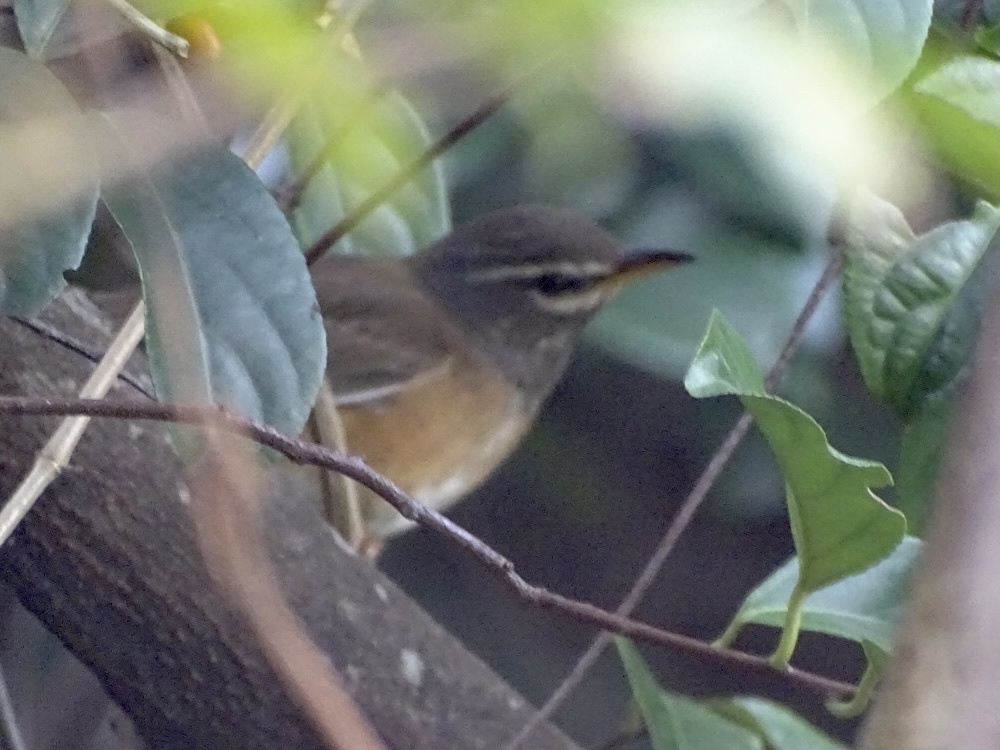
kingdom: Animalia
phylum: Chordata
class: Aves
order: Passeriformes
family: Turdidae
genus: Turdus
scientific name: Turdus obscurus
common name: Eyebrowed thrush
